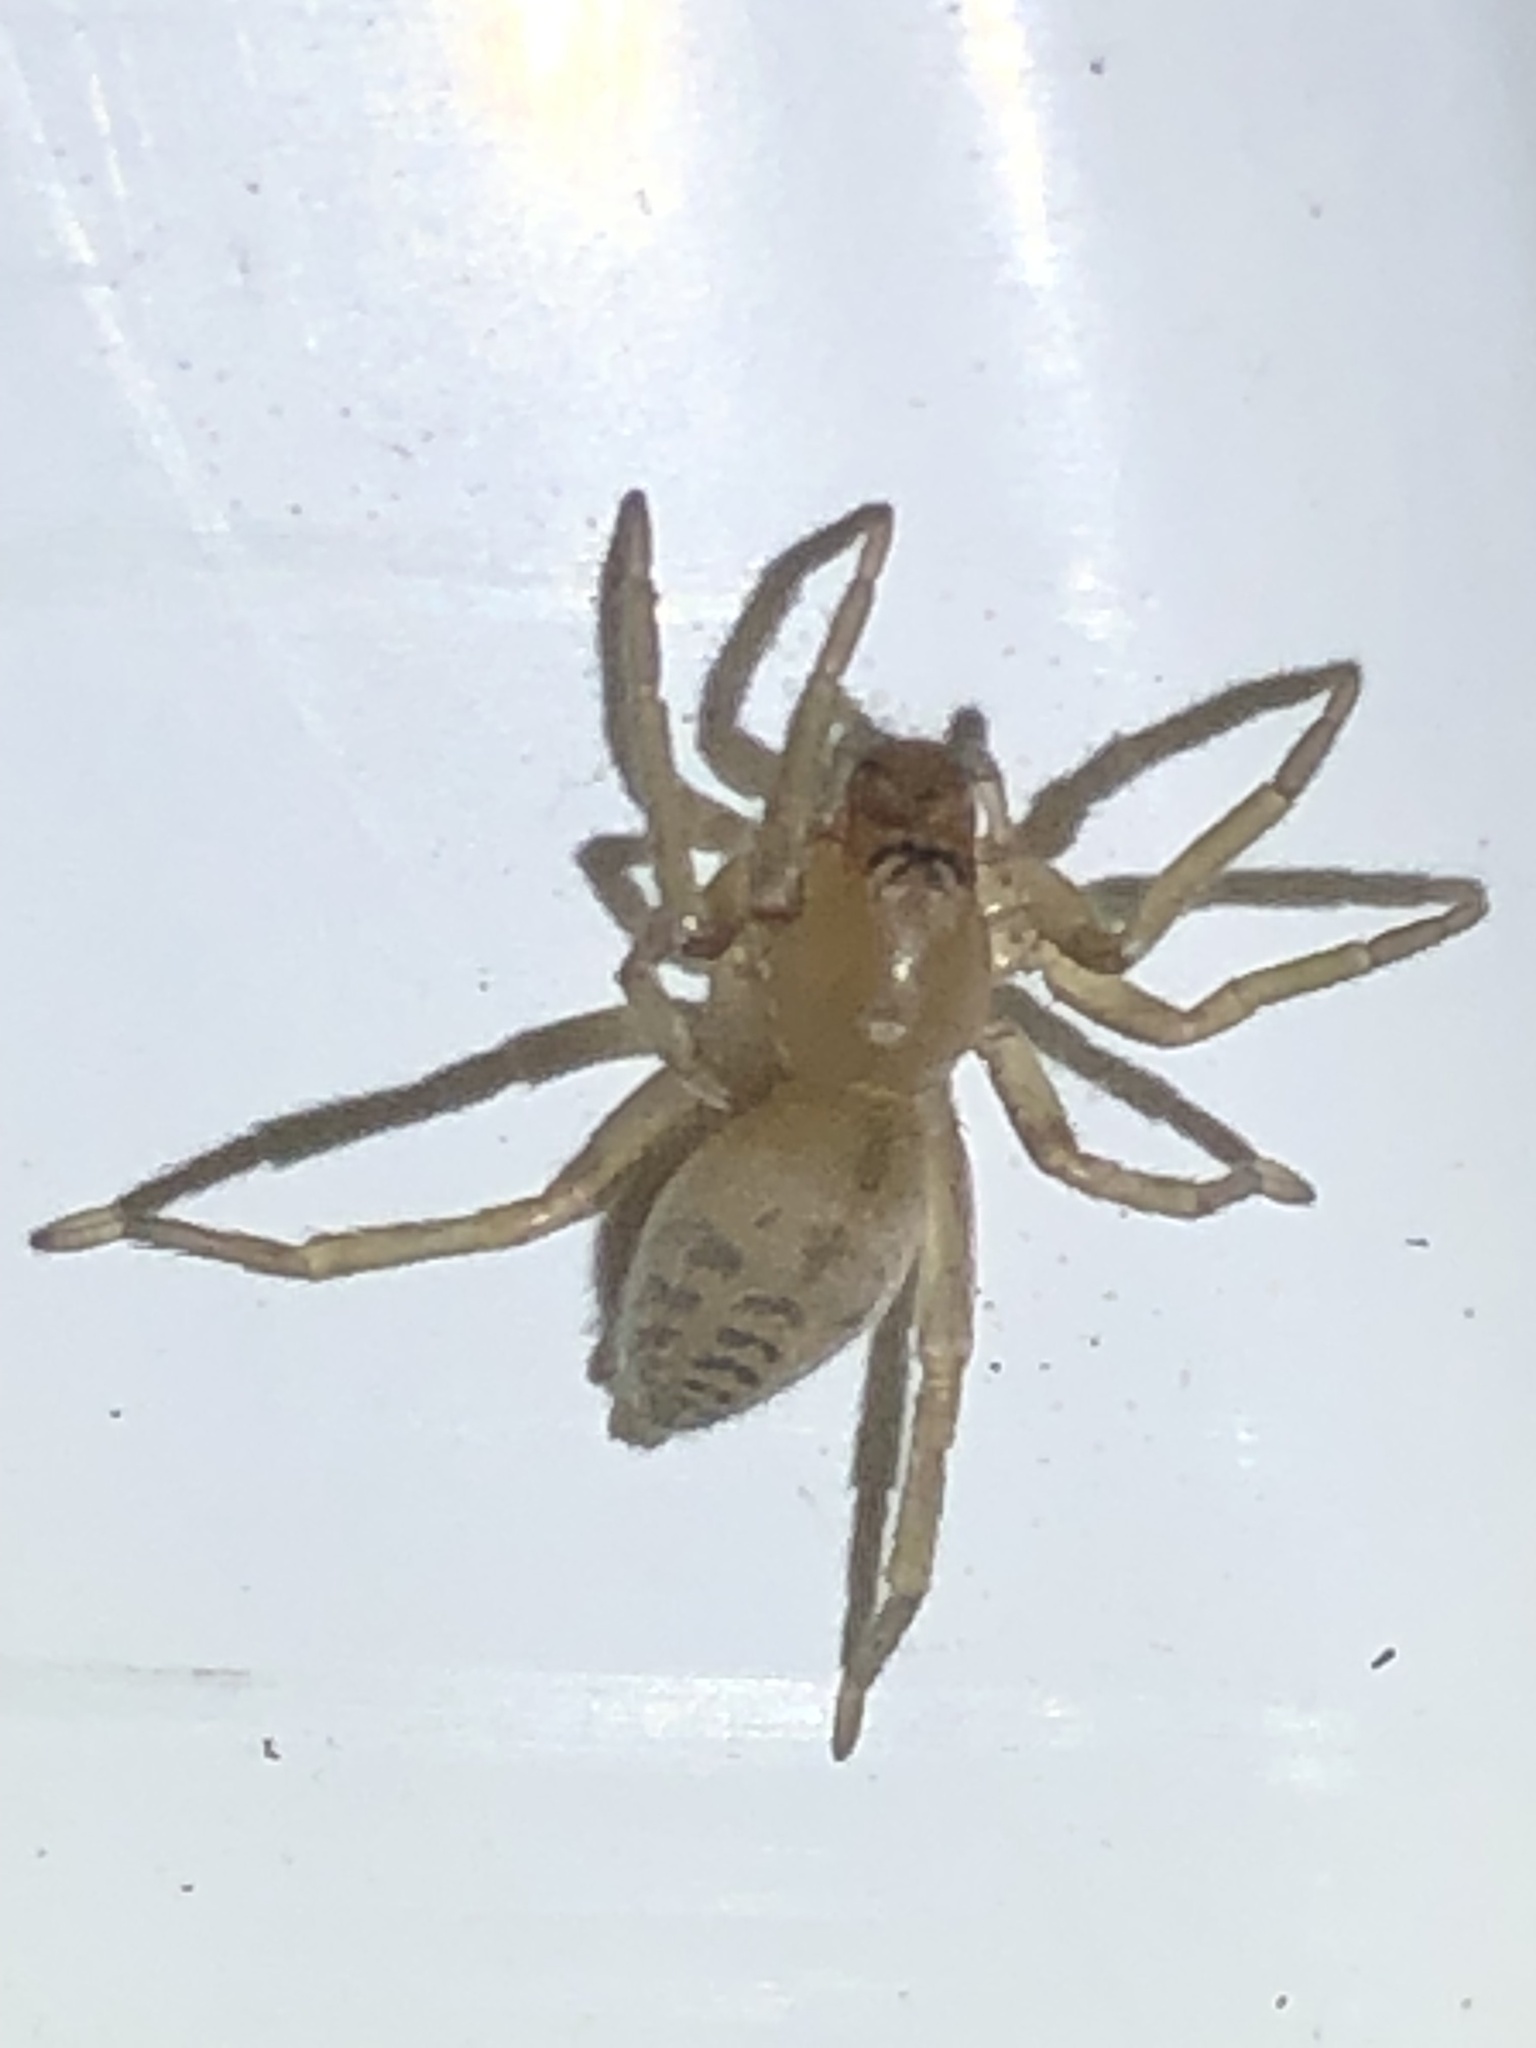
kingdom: Animalia
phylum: Arthropoda
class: Arachnida
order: Araneae
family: Clubionidae
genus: Elaver
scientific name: Elaver excepta
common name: White sac spider
